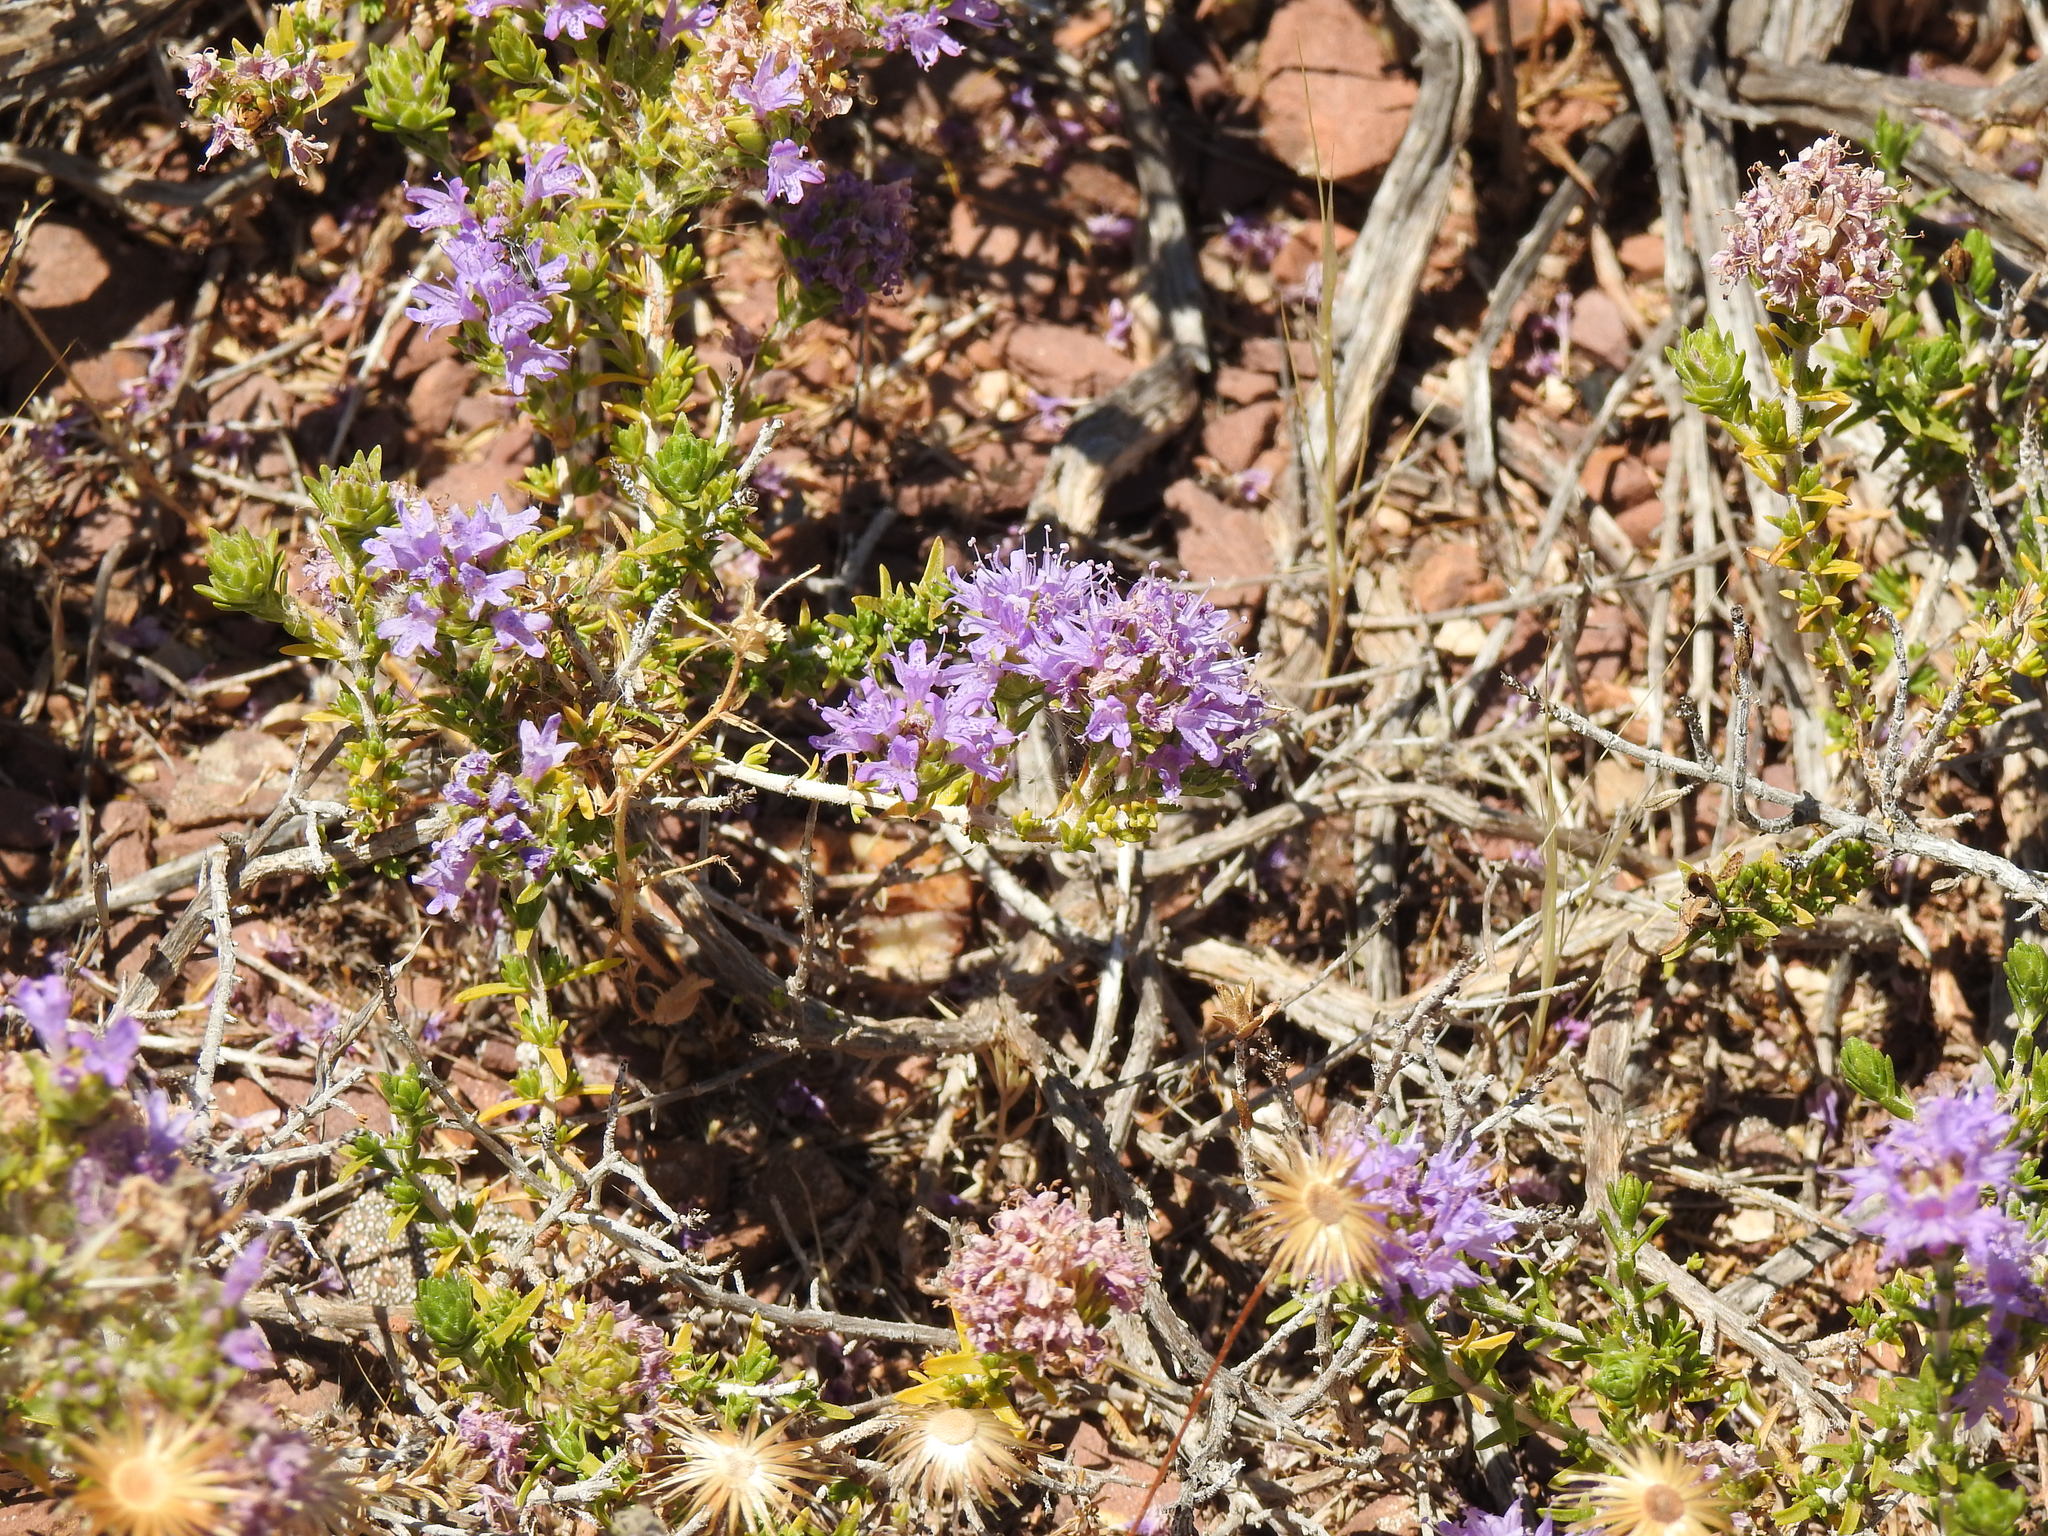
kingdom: Plantae
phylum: Tracheophyta
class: Magnoliopsida
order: Lamiales
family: Lamiaceae
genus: Thymbra
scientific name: Thymbra capitata
